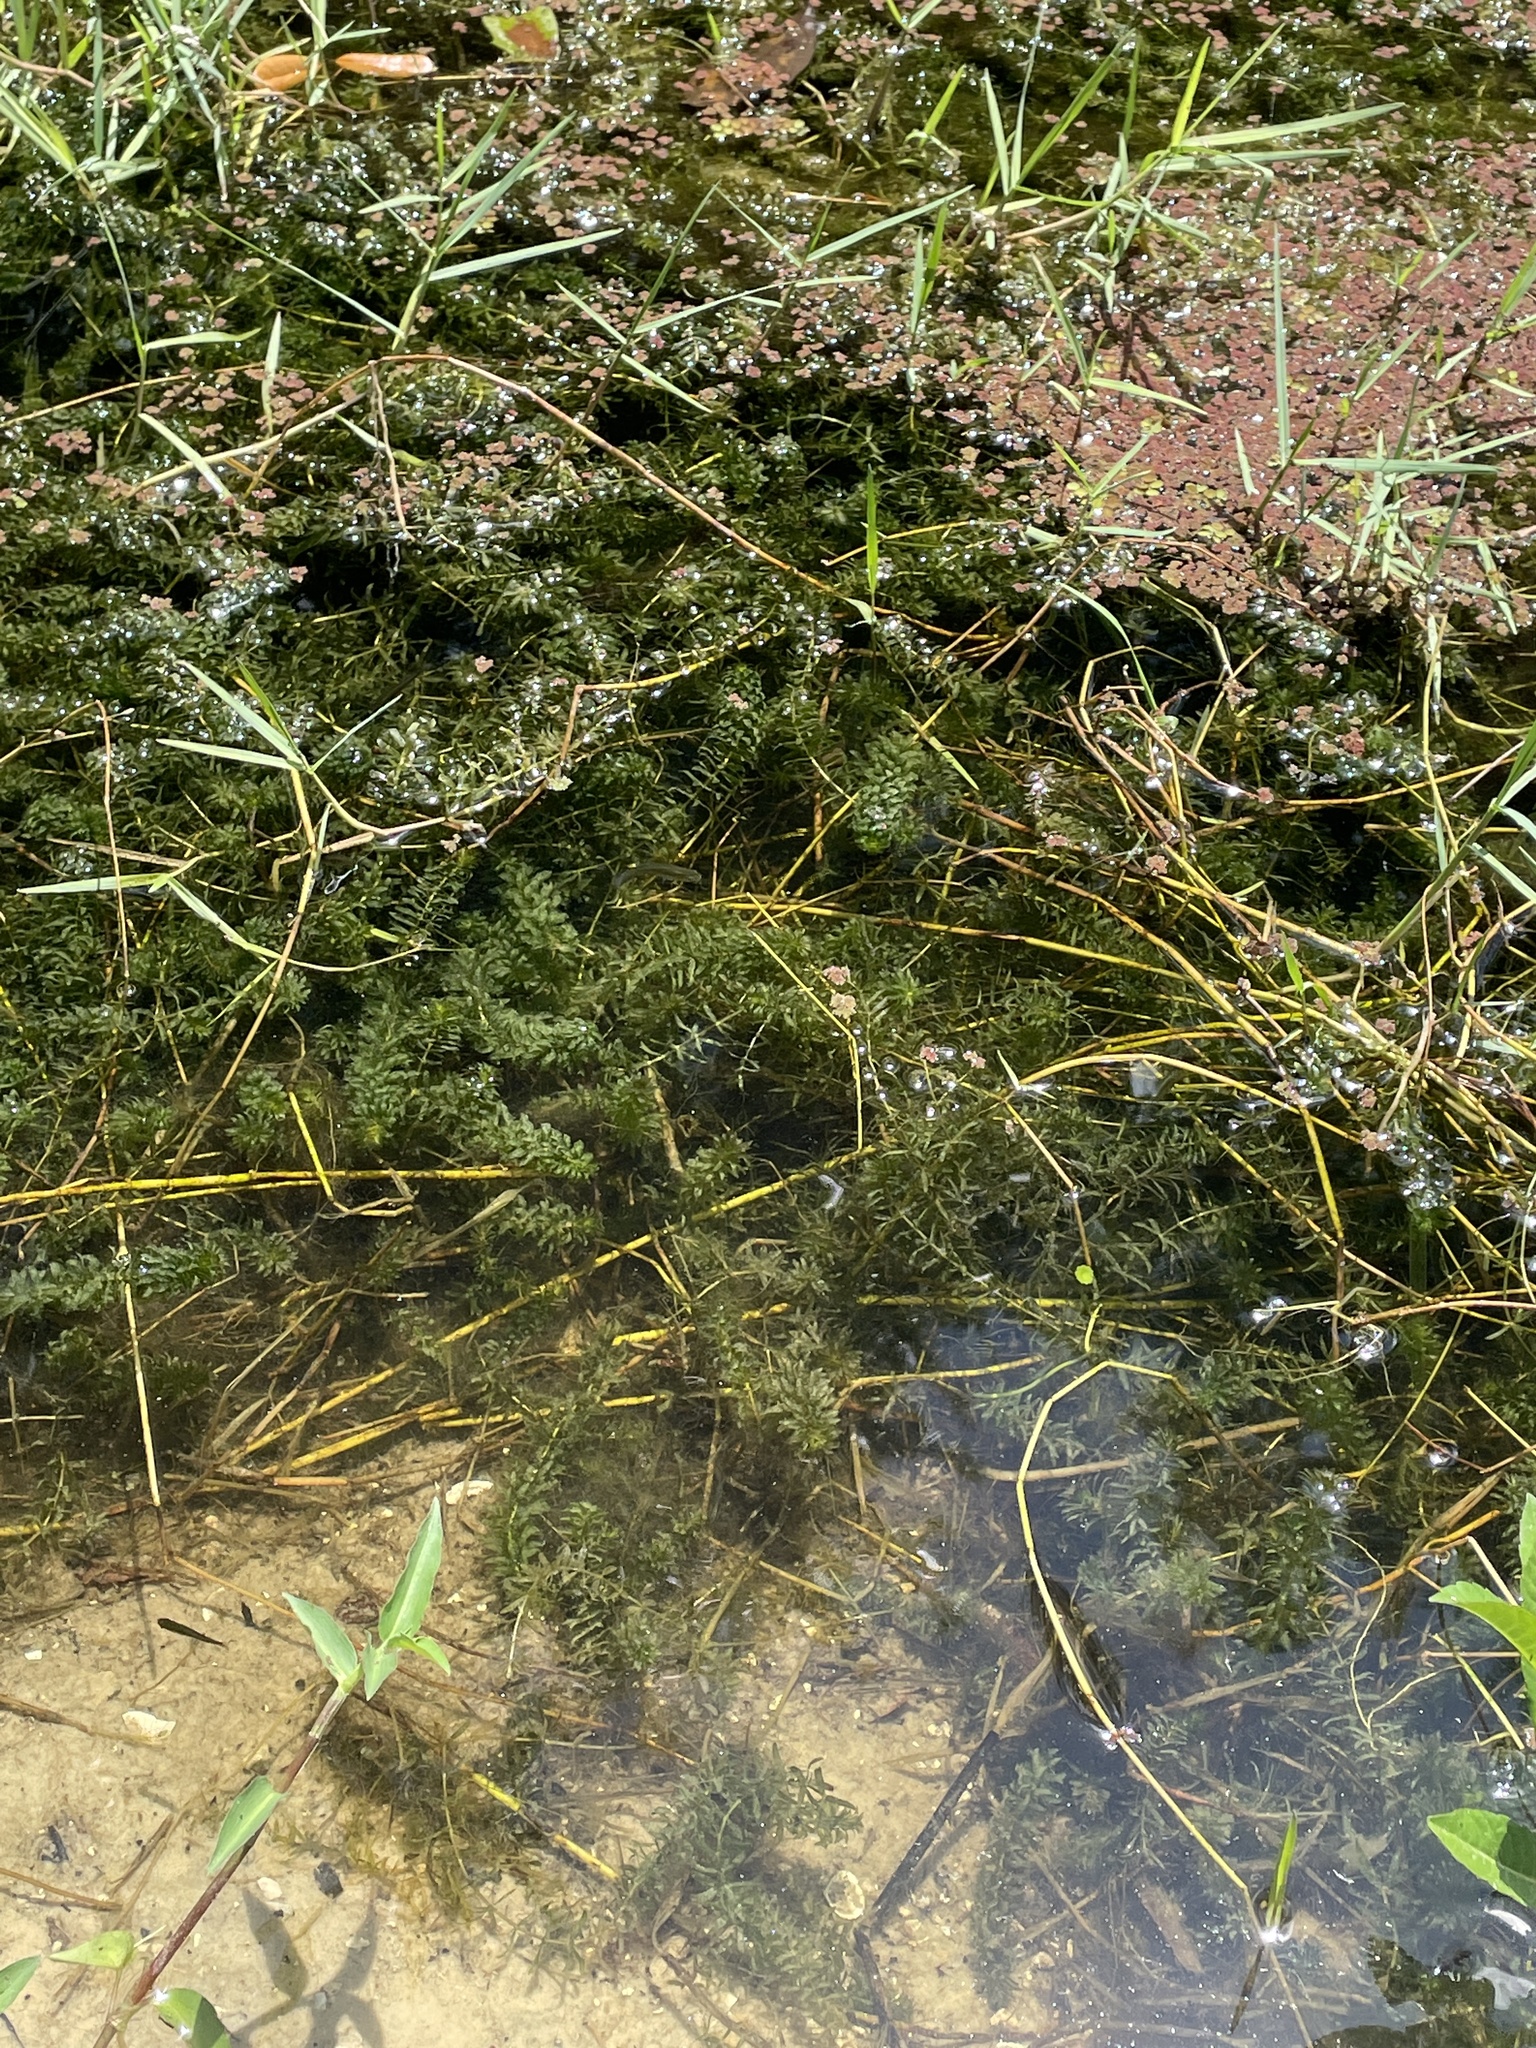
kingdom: Plantae
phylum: Tracheophyta
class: Liliopsida
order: Alismatales
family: Hydrocharitaceae
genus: Hydrilla
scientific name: Hydrilla verticillata
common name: Florida-elodea
